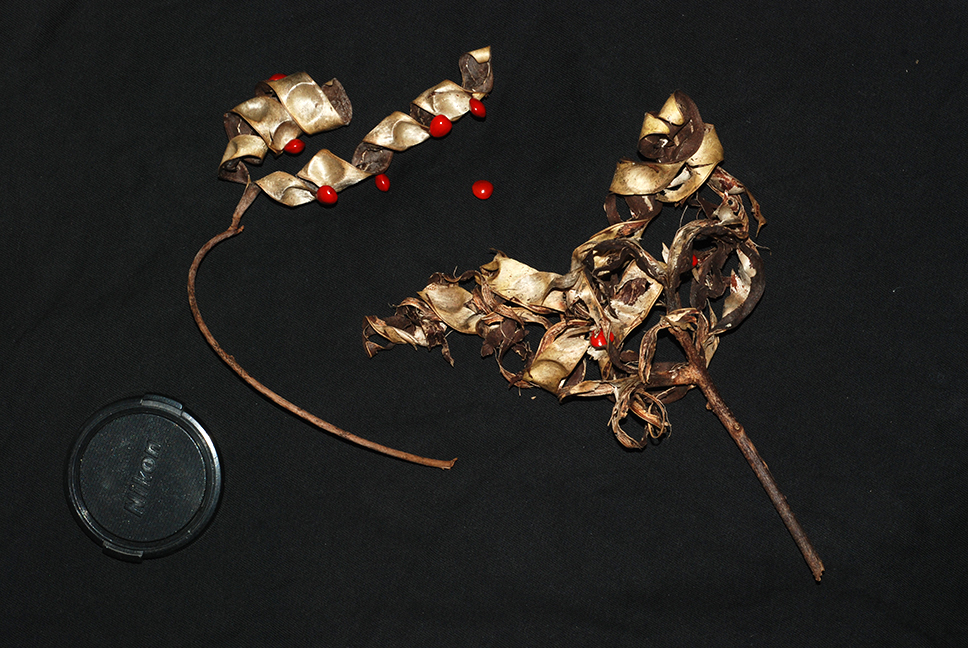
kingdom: Plantae
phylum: Tracheophyta
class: Magnoliopsida
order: Fabales
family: Fabaceae
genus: Adenanthera
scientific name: Adenanthera pavonina
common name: Red beadtree
